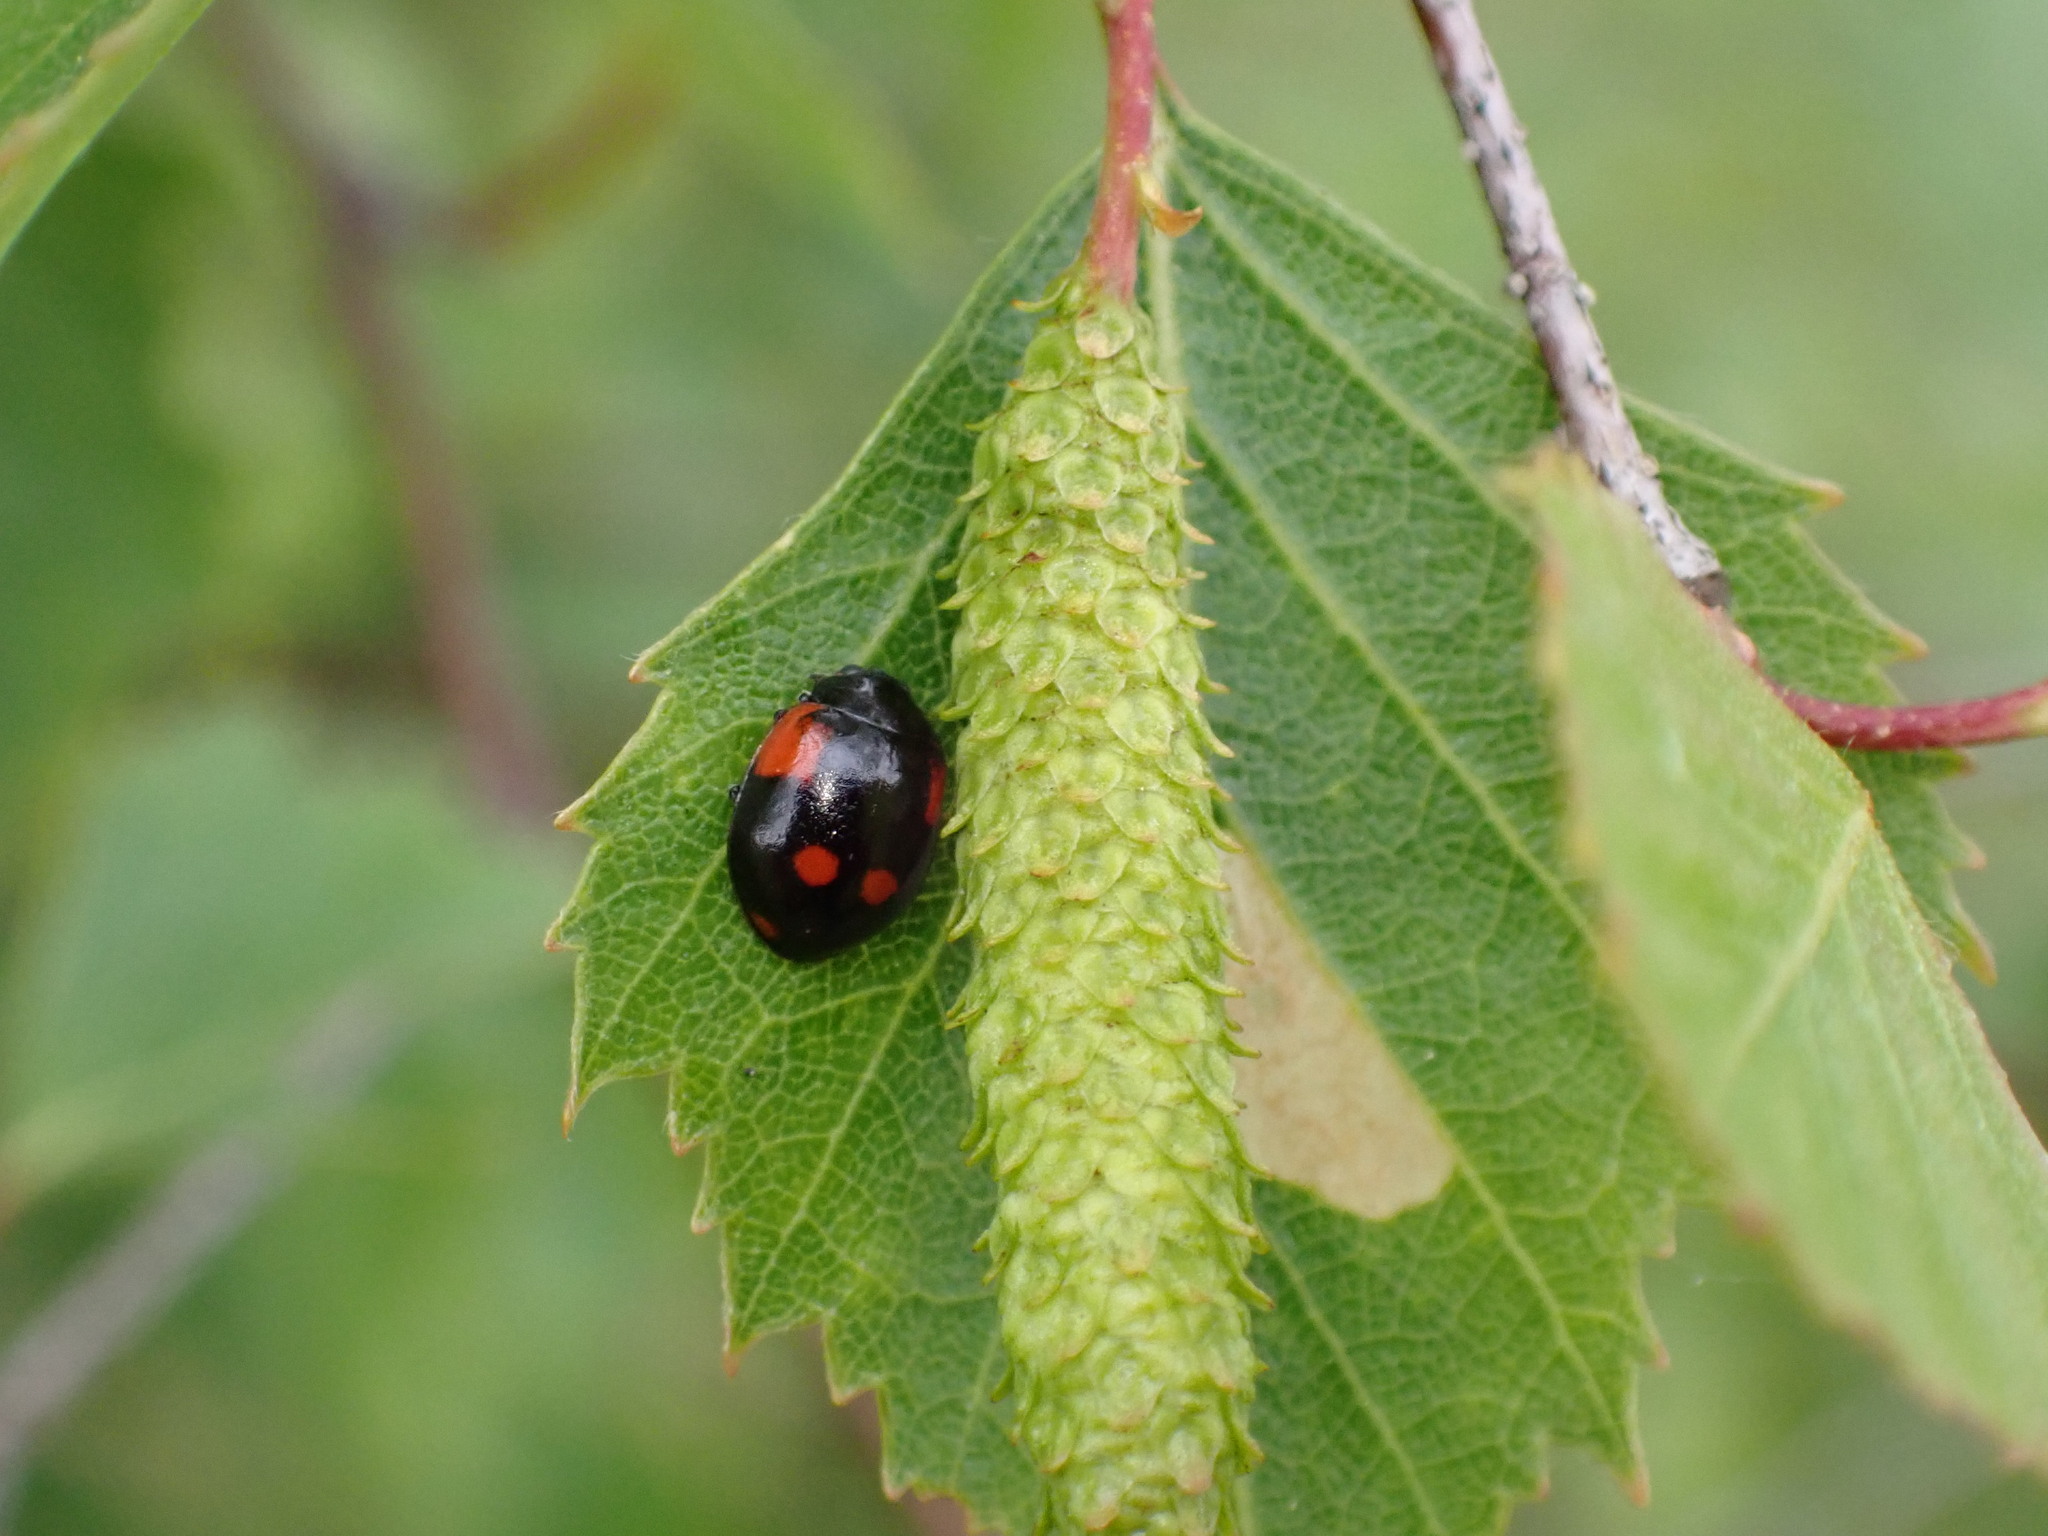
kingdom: Animalia
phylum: Arthropoda
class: Insecta
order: Coleoptera
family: Coccinellidae
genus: Adalia
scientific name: Adalia bipunctata
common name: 2-spot ladybird
